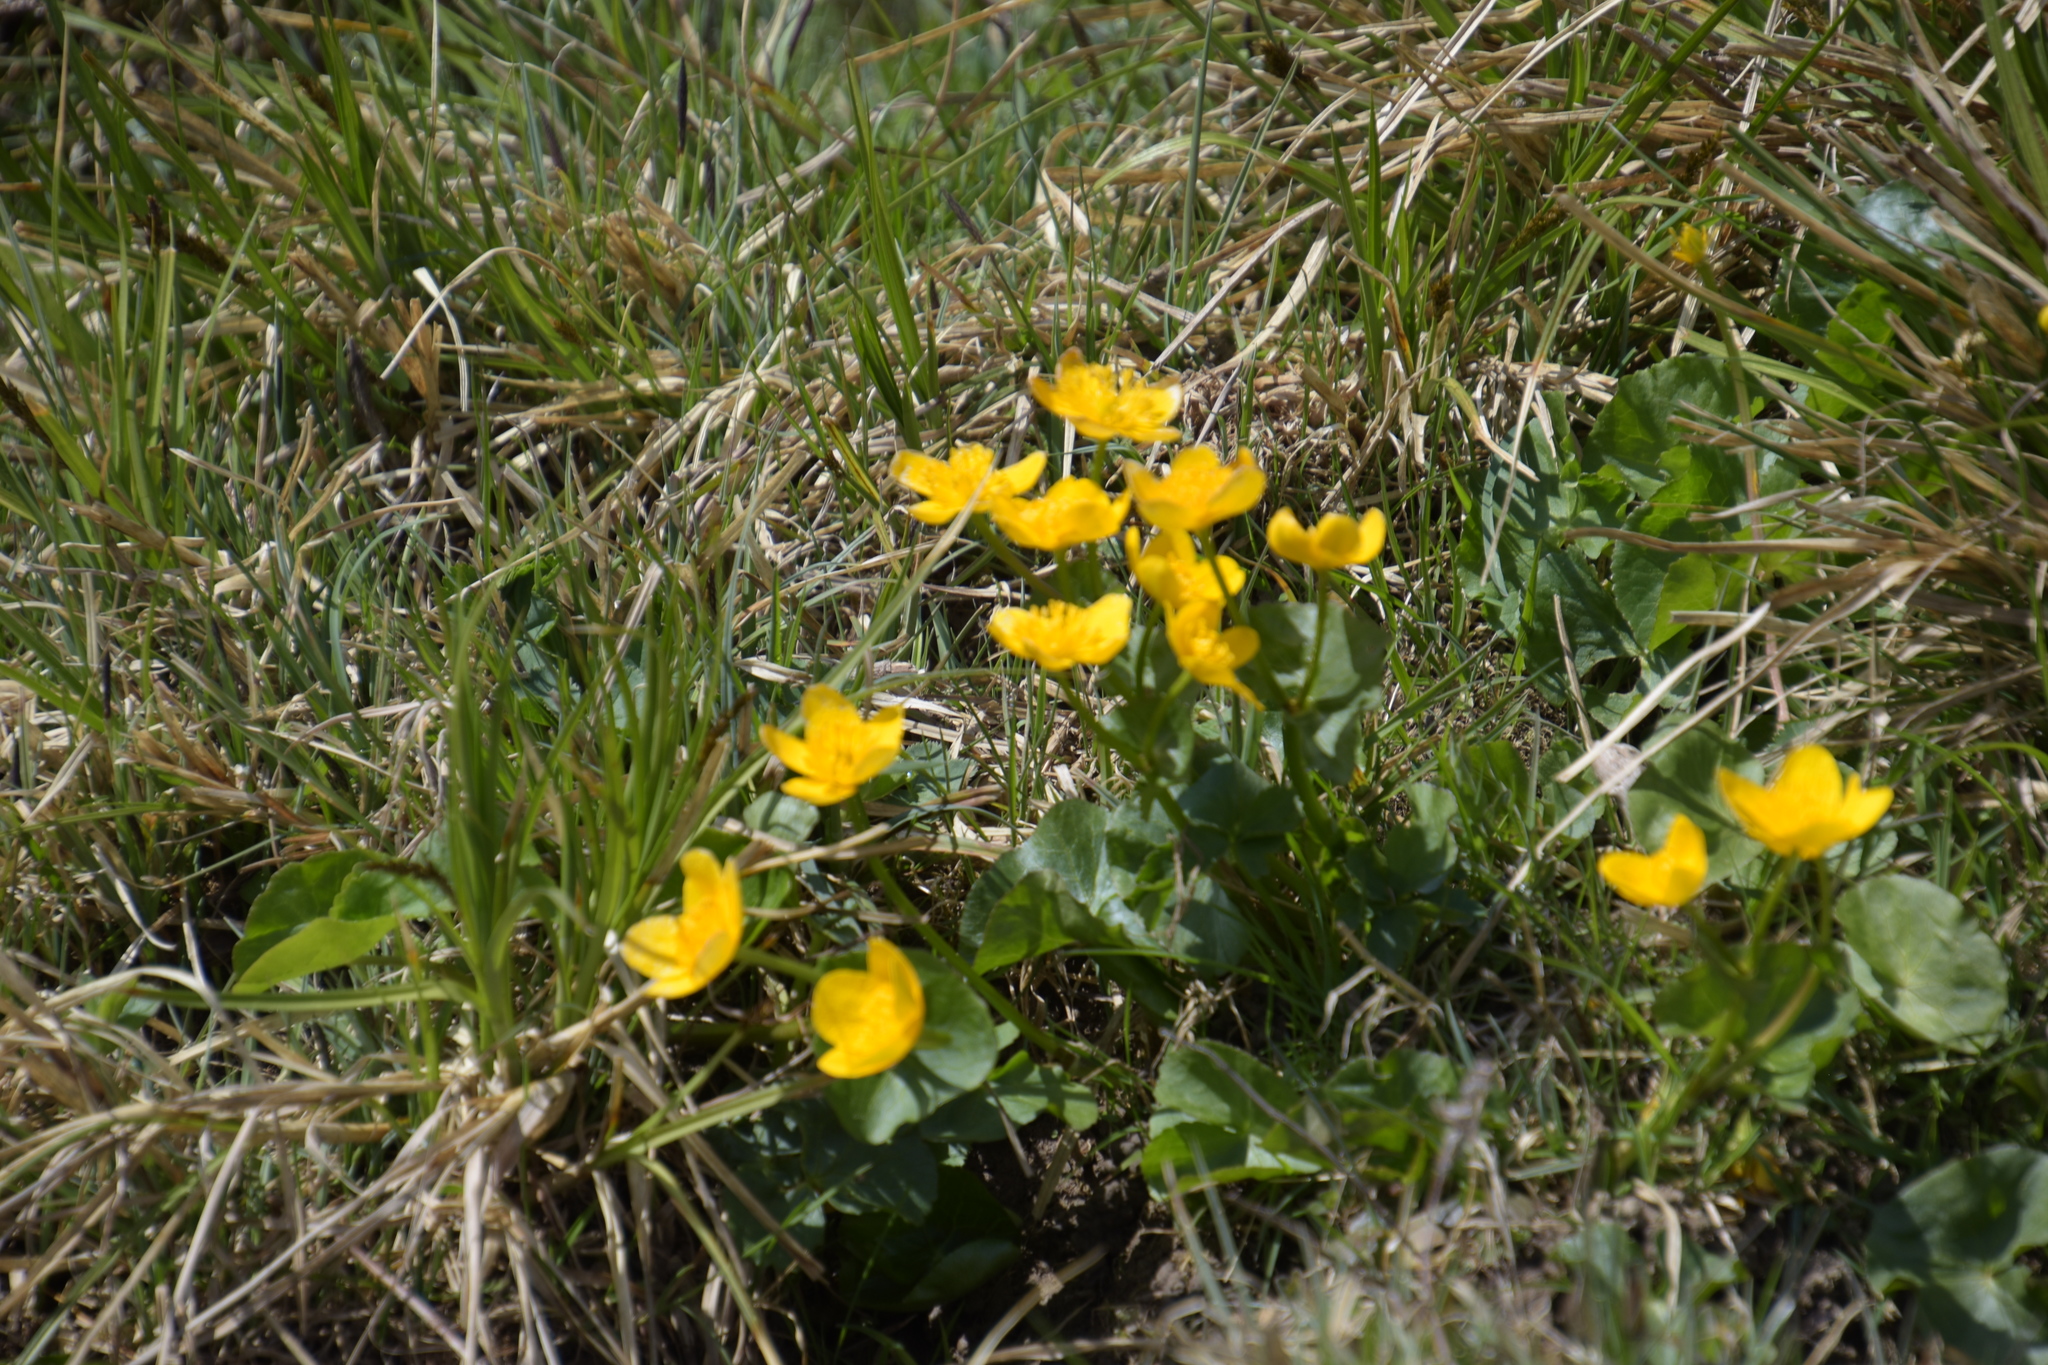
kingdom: Plantae
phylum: Tracheophyta
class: Magnoliopsida
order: Ranunculales
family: Ranunculaceae
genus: Caltha
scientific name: Caltha palustris
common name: Marsh marigold
